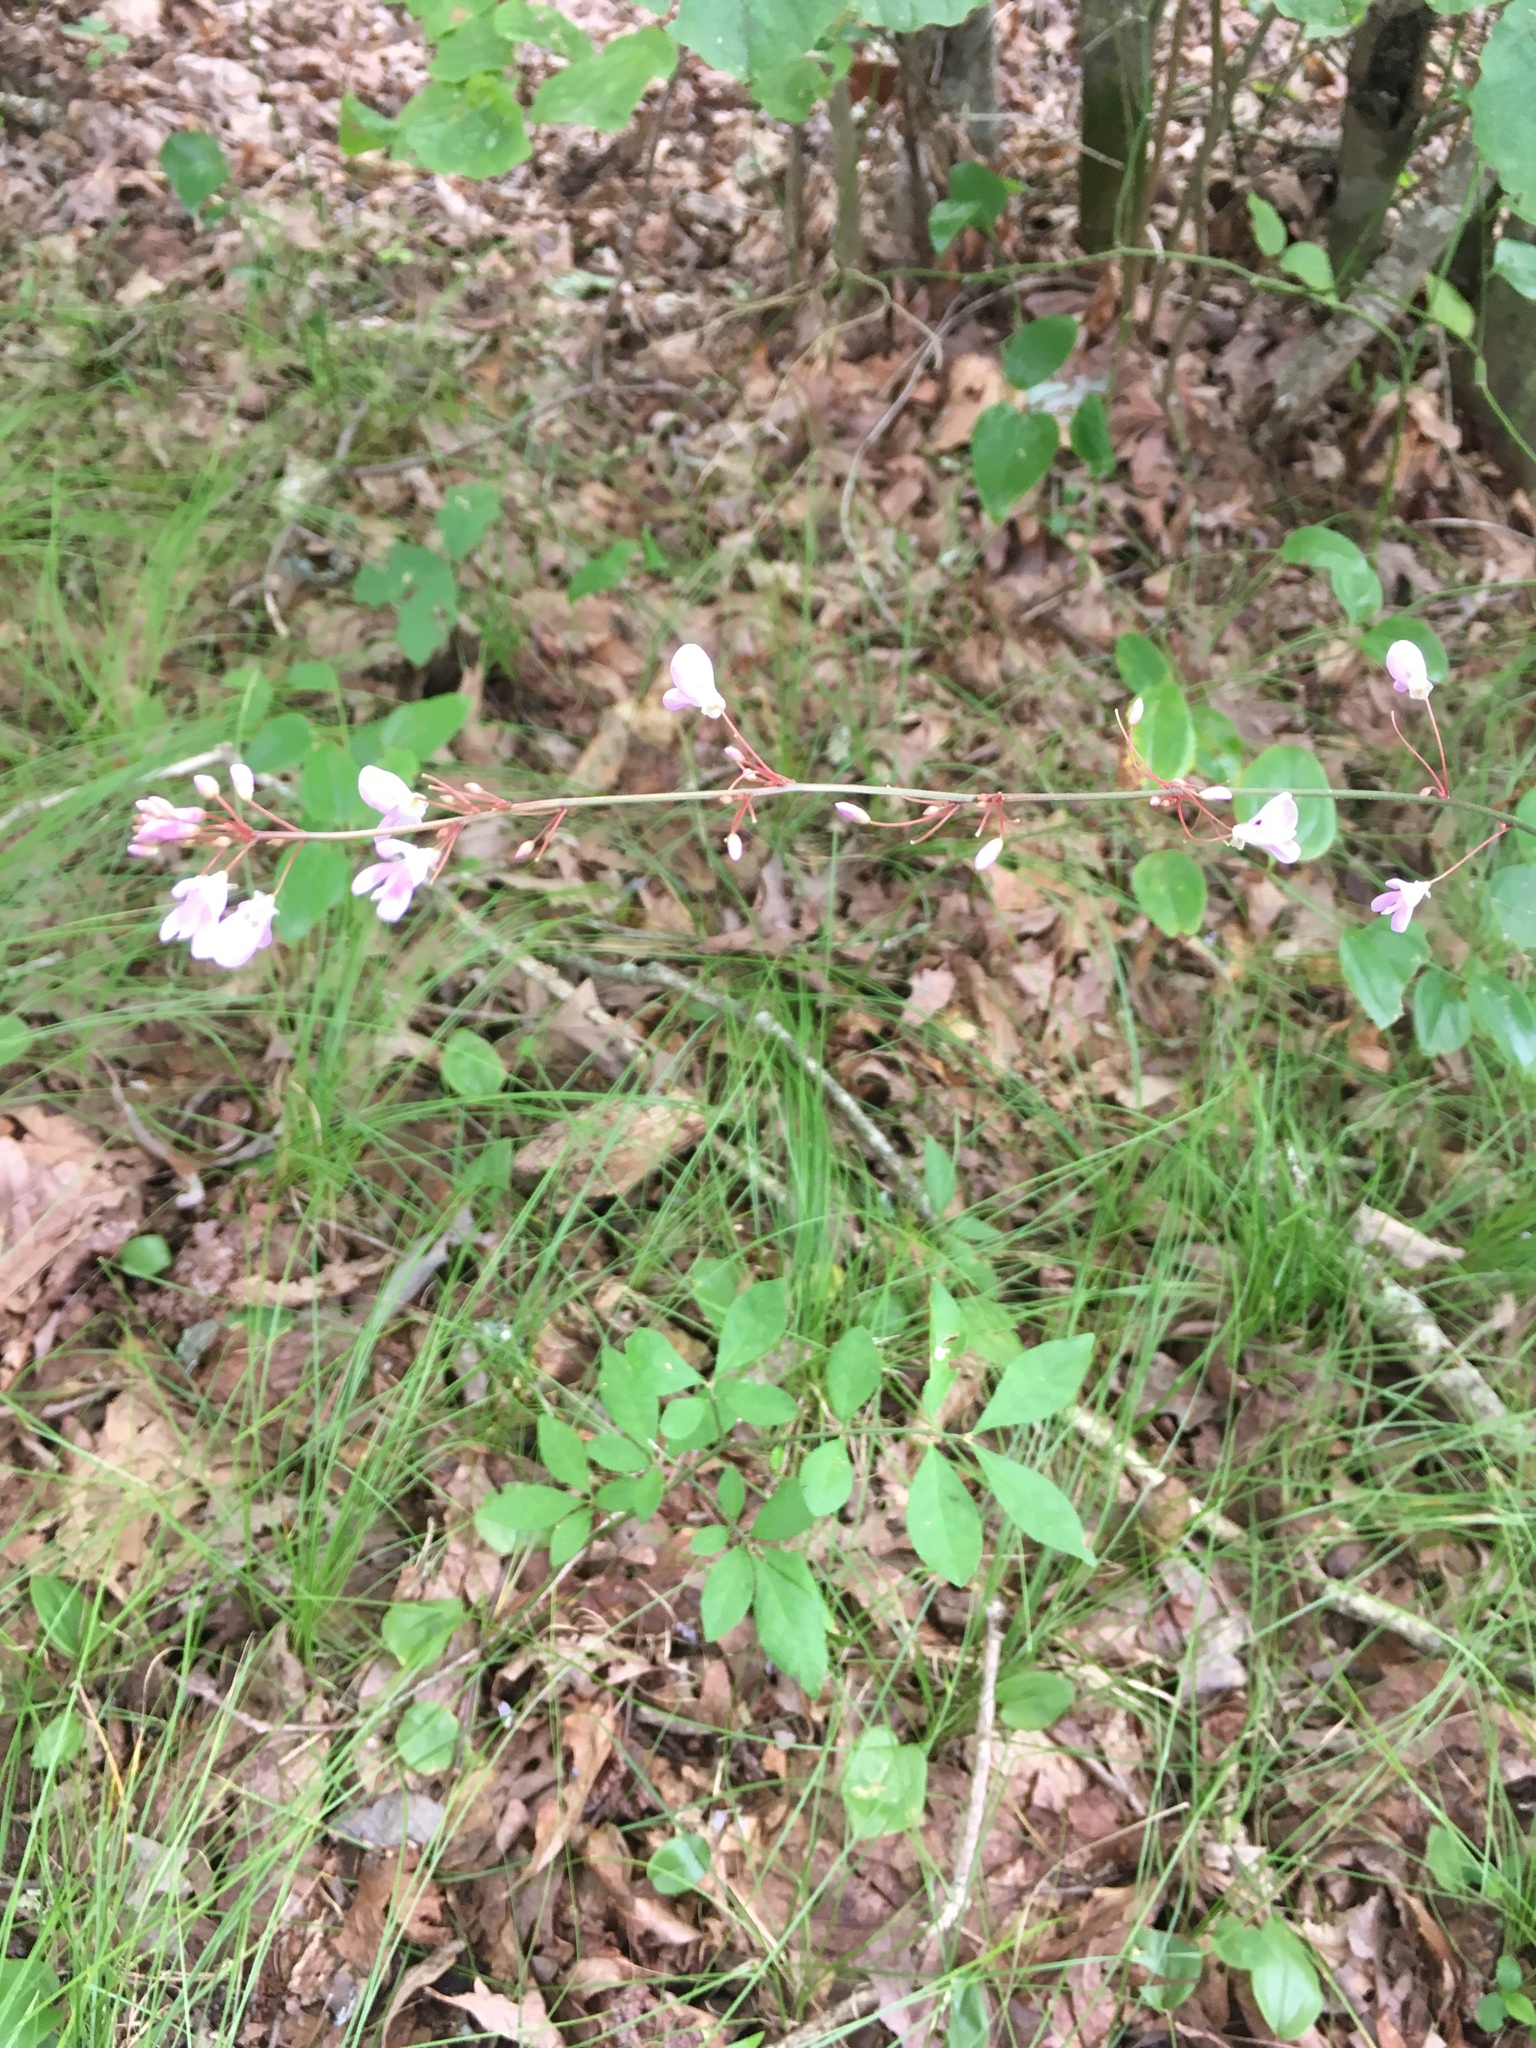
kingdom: Plantae
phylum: Tracheophyta
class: Magnoliopsida
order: Fabales
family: Fabaceae
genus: Hylodesmum
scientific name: Hylodesmum nudiflorum
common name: Bare-stemmed tick-trefoil
